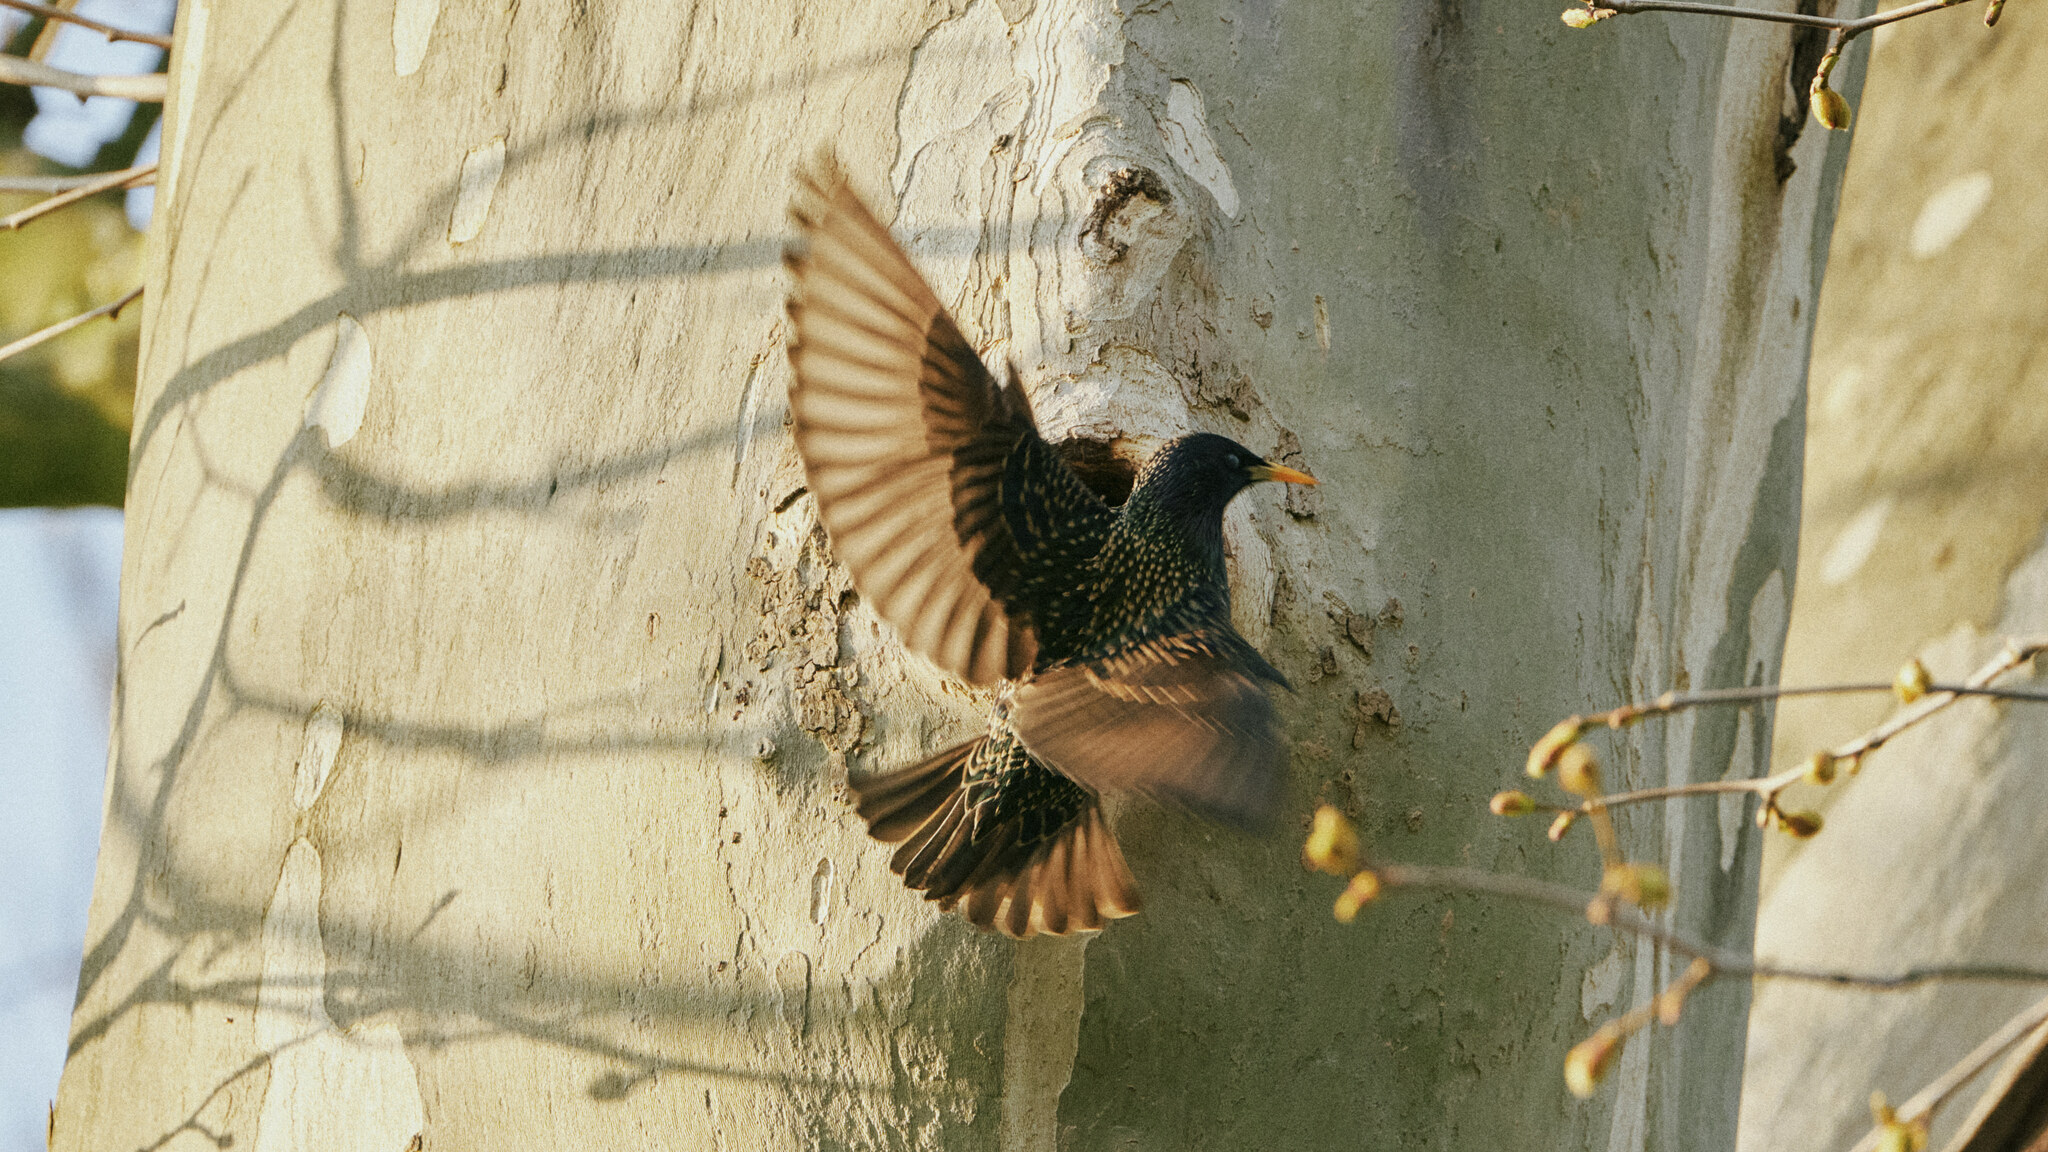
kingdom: Animalia
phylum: Chordata
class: Aves
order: Passeriformes
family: Sturnidae
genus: Sturnus
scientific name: Sturnus vulgaris
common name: Common starling
